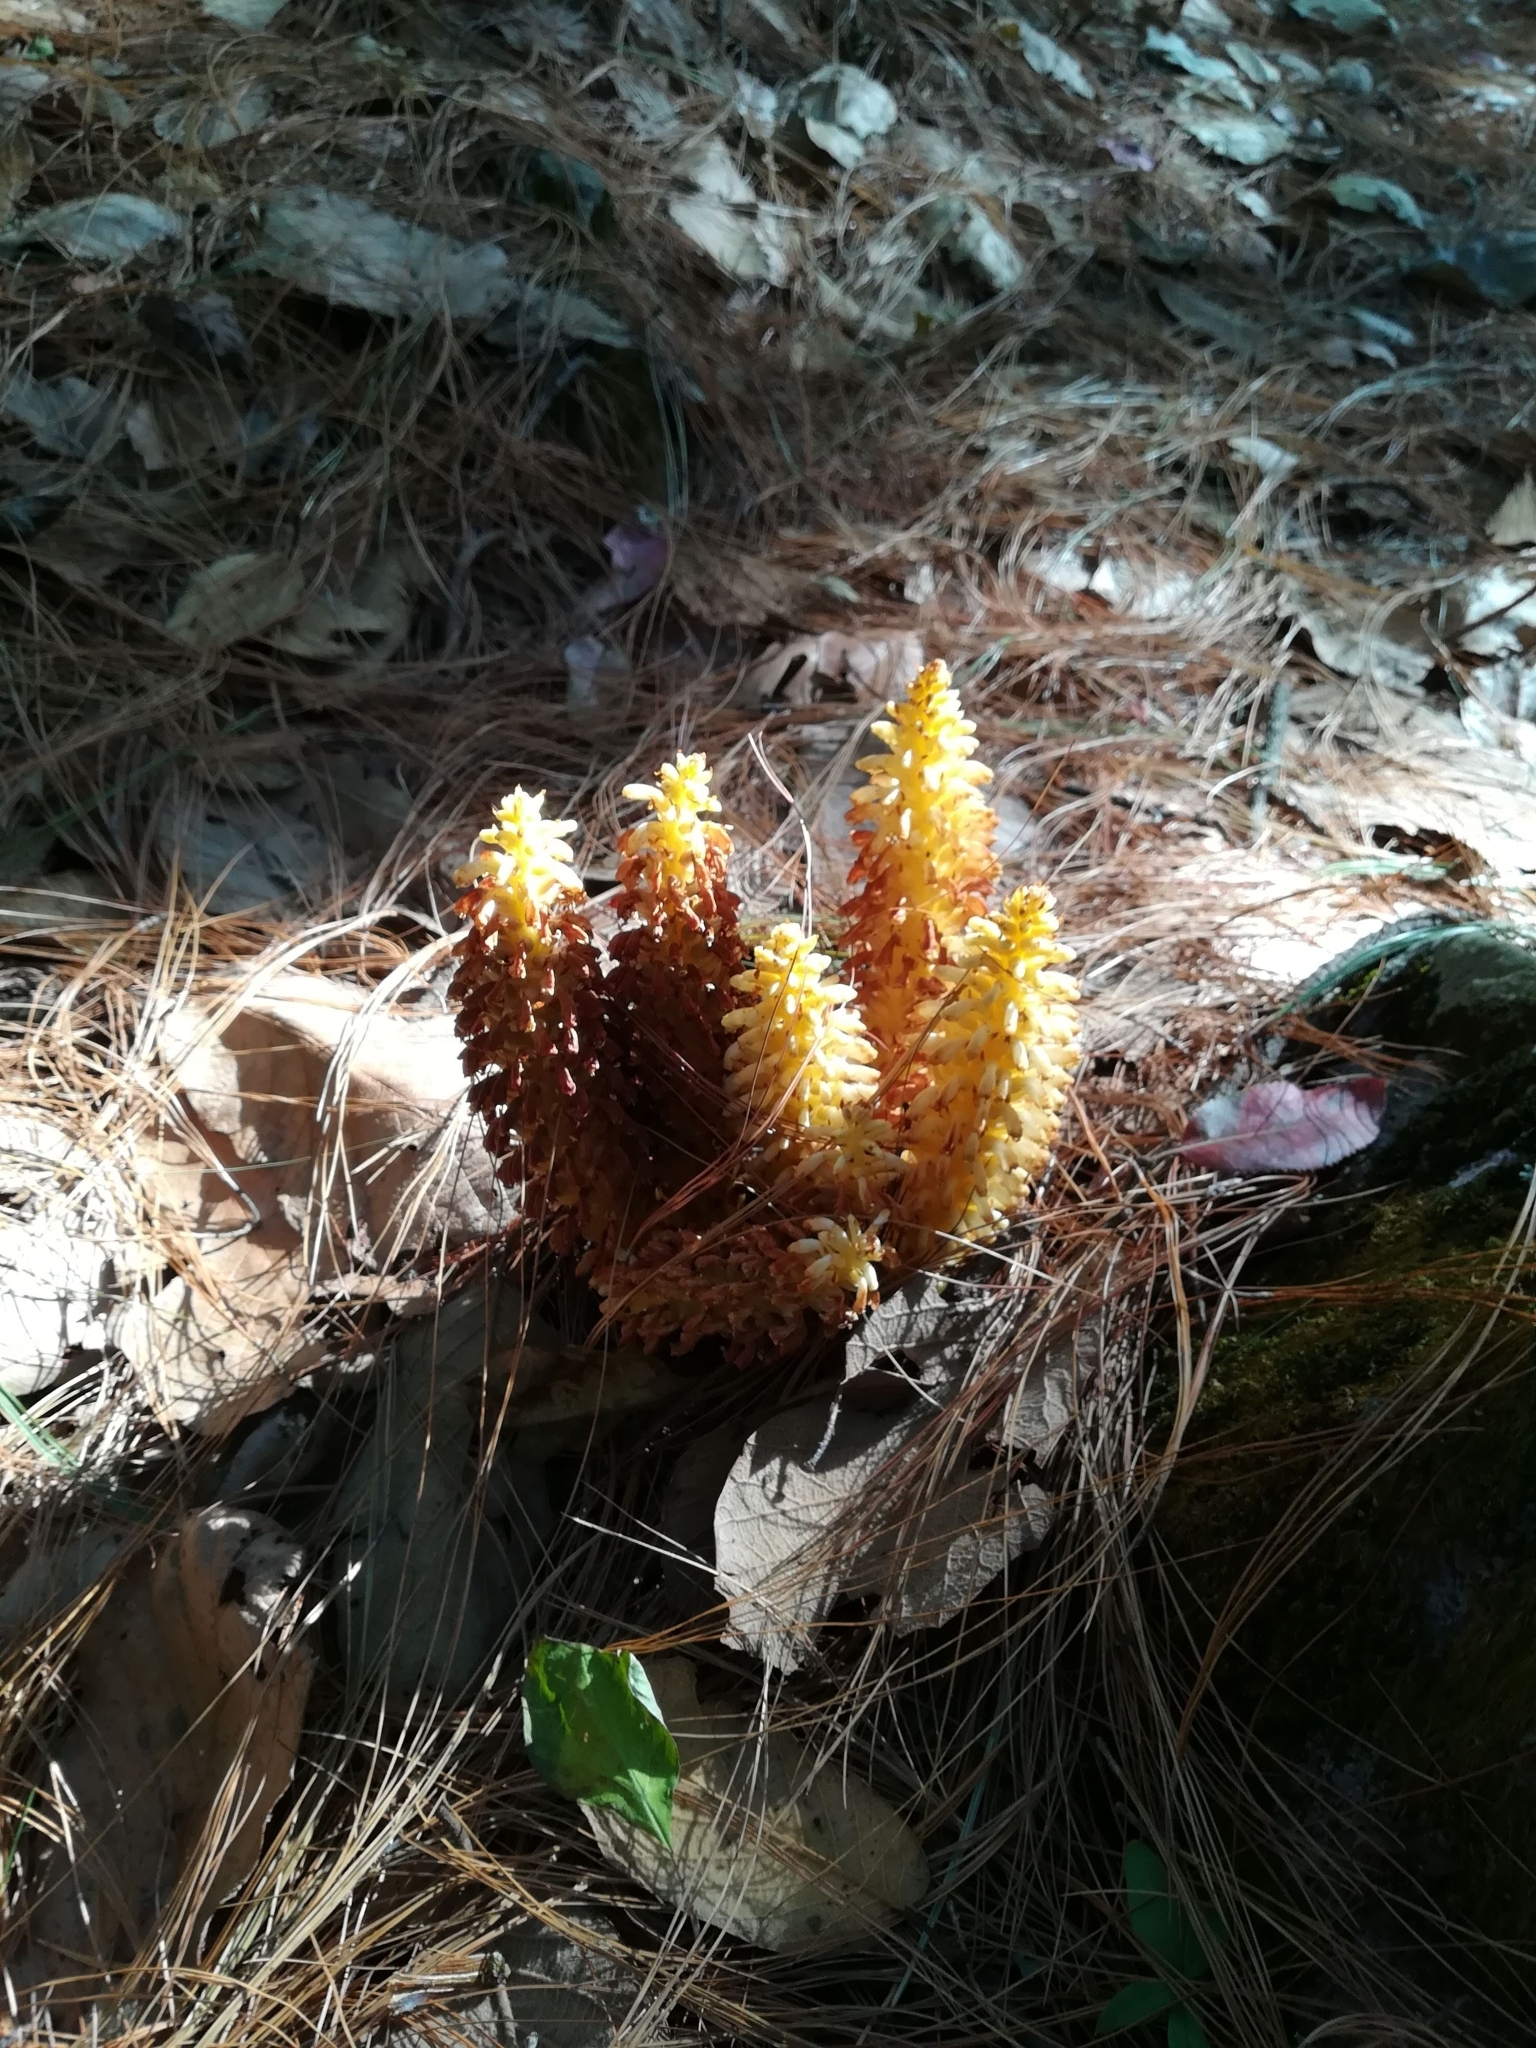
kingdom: Plantae
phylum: Tracheophyta
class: Magnoliopsida
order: Lamiales
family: Orobanchaceae
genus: Conopholis
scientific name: Conopholis alpina
